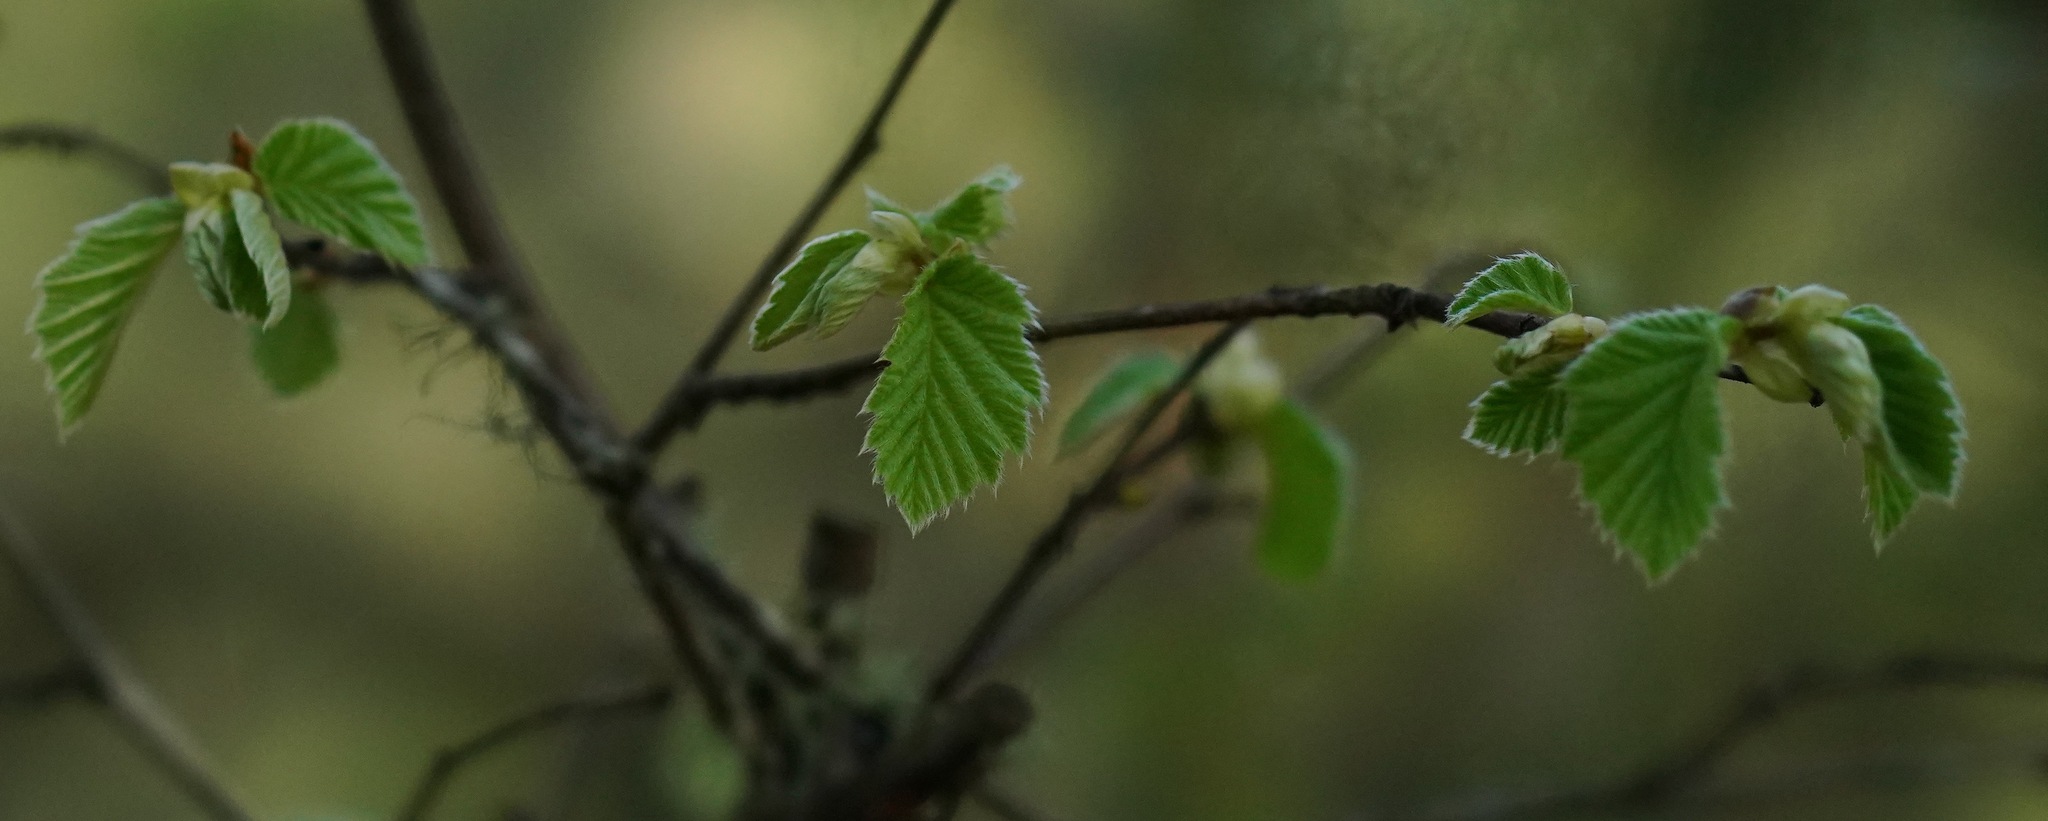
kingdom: Plantae
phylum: Tracheophyta
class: Magnoliopsida
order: Fagales
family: Betulaceae
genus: Corylus
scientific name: Corylus cornuta
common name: Beaked hazel
